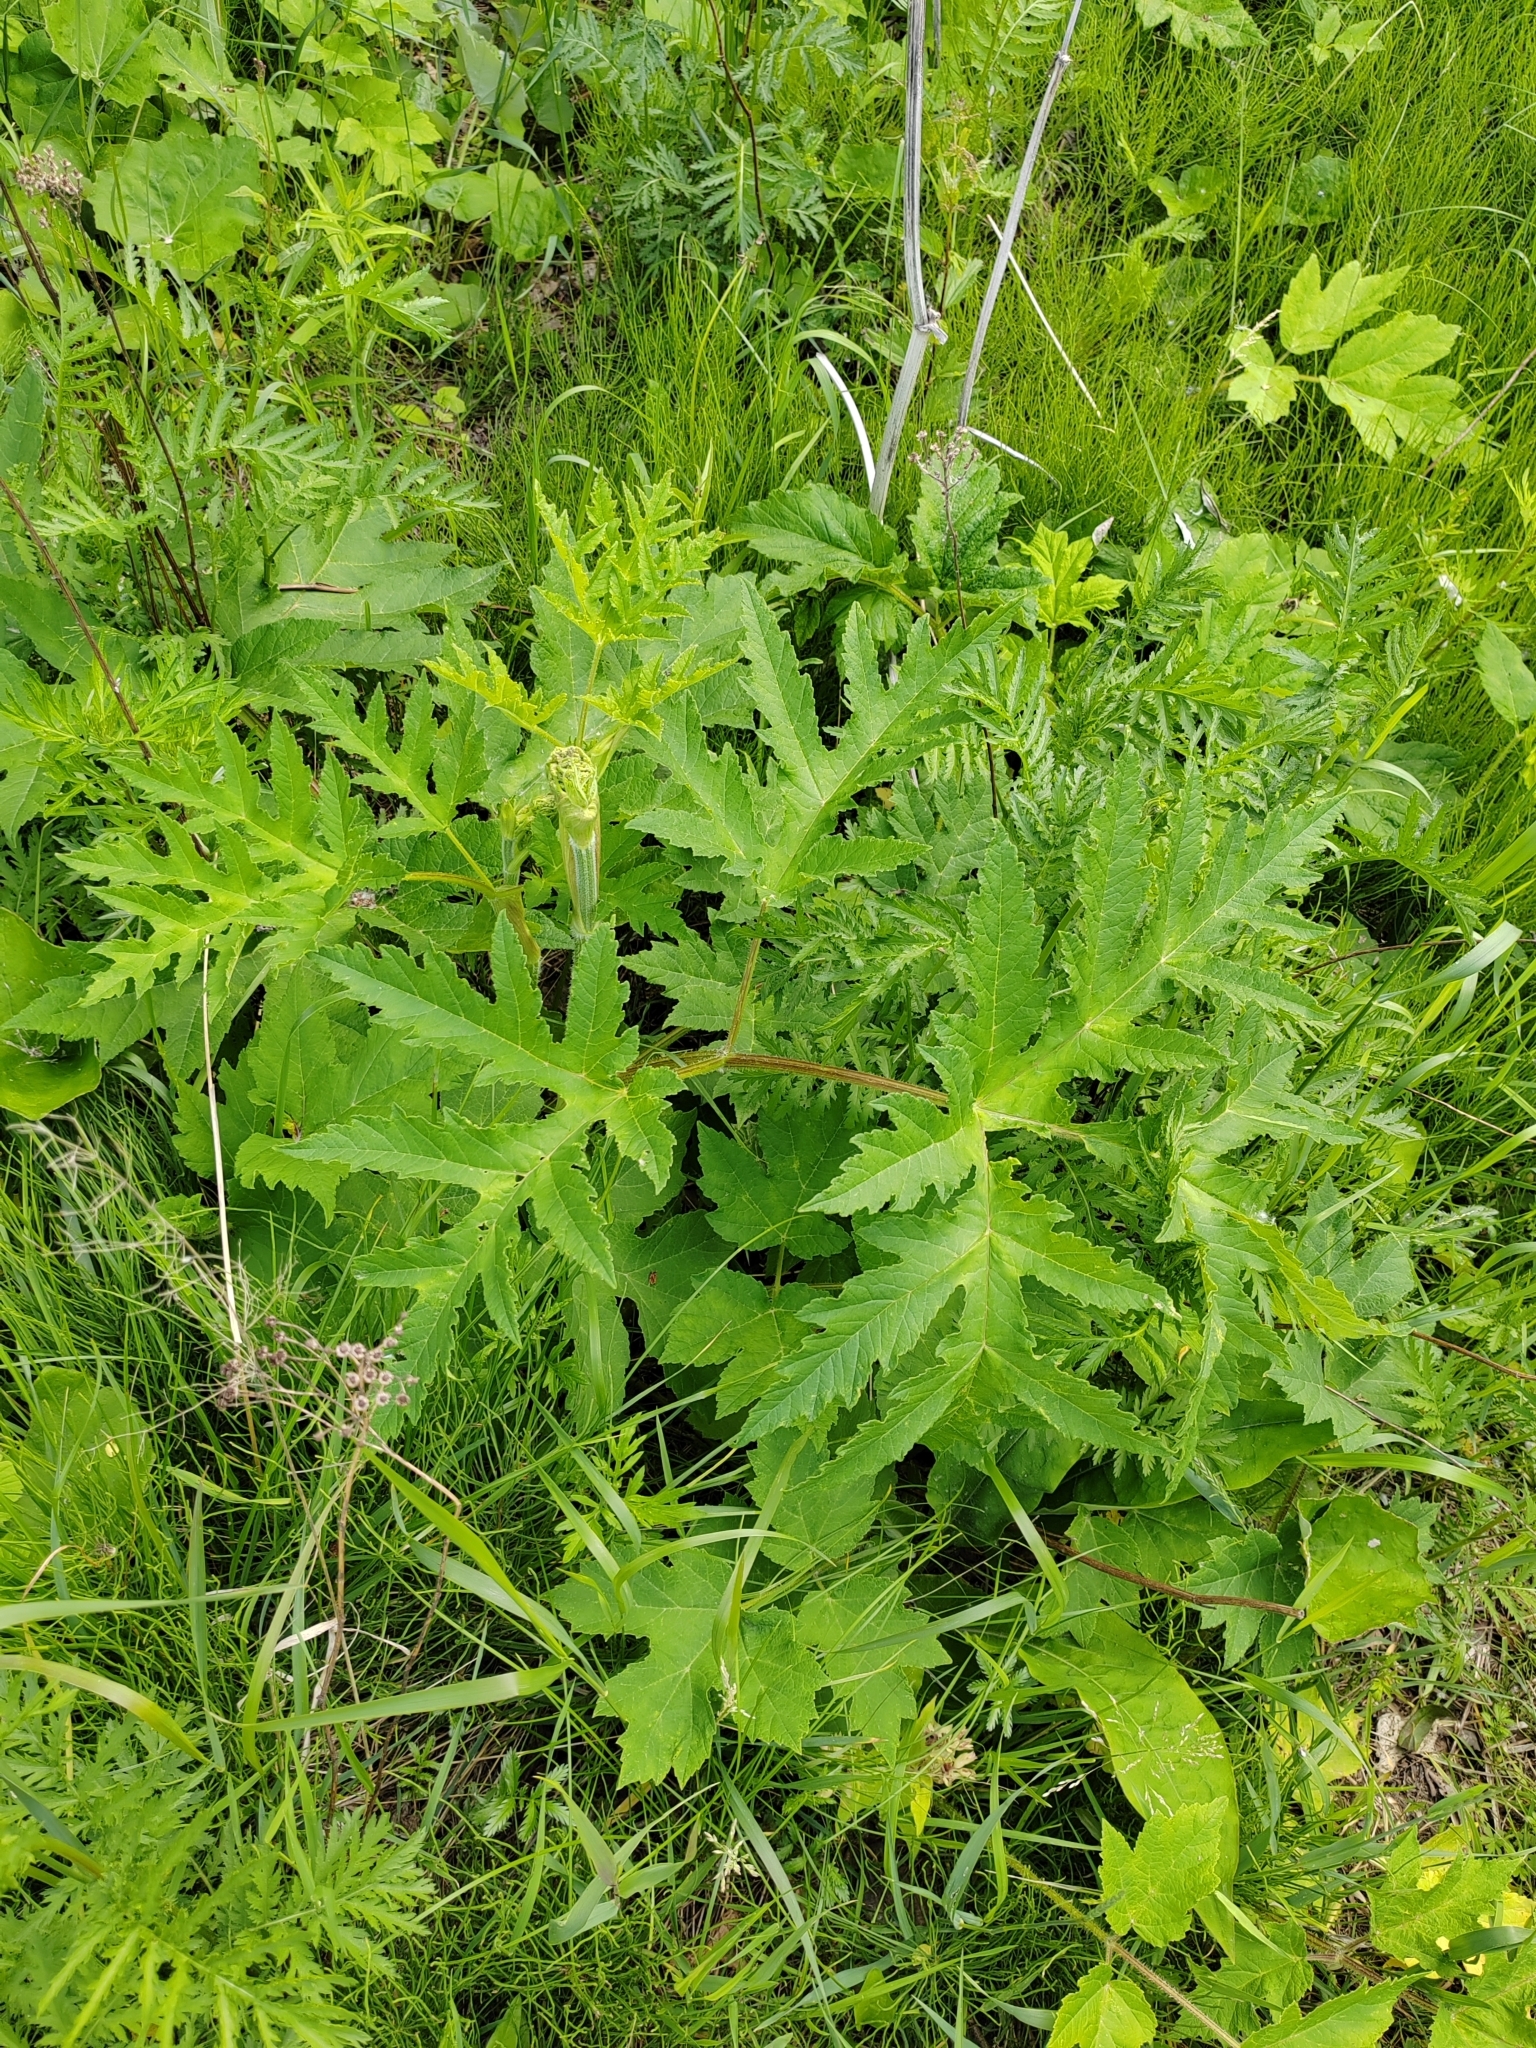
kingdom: Plantae
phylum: Tracheophyta
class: Magnoliopsida
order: Apiales
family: Apiaceae
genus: Heracleum
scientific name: Heracleum sphondylium
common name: Hogweed
